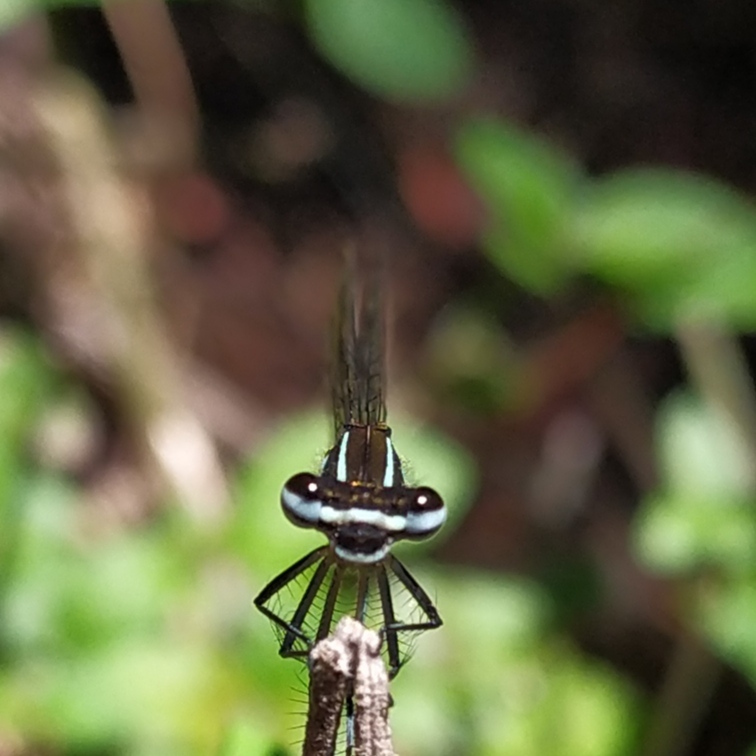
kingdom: Animalia
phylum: Arthropoda
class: Insecta
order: Odonata
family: Platycnemididae
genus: Allocnemis
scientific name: Allocnemis leucosticta
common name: Goldtail
